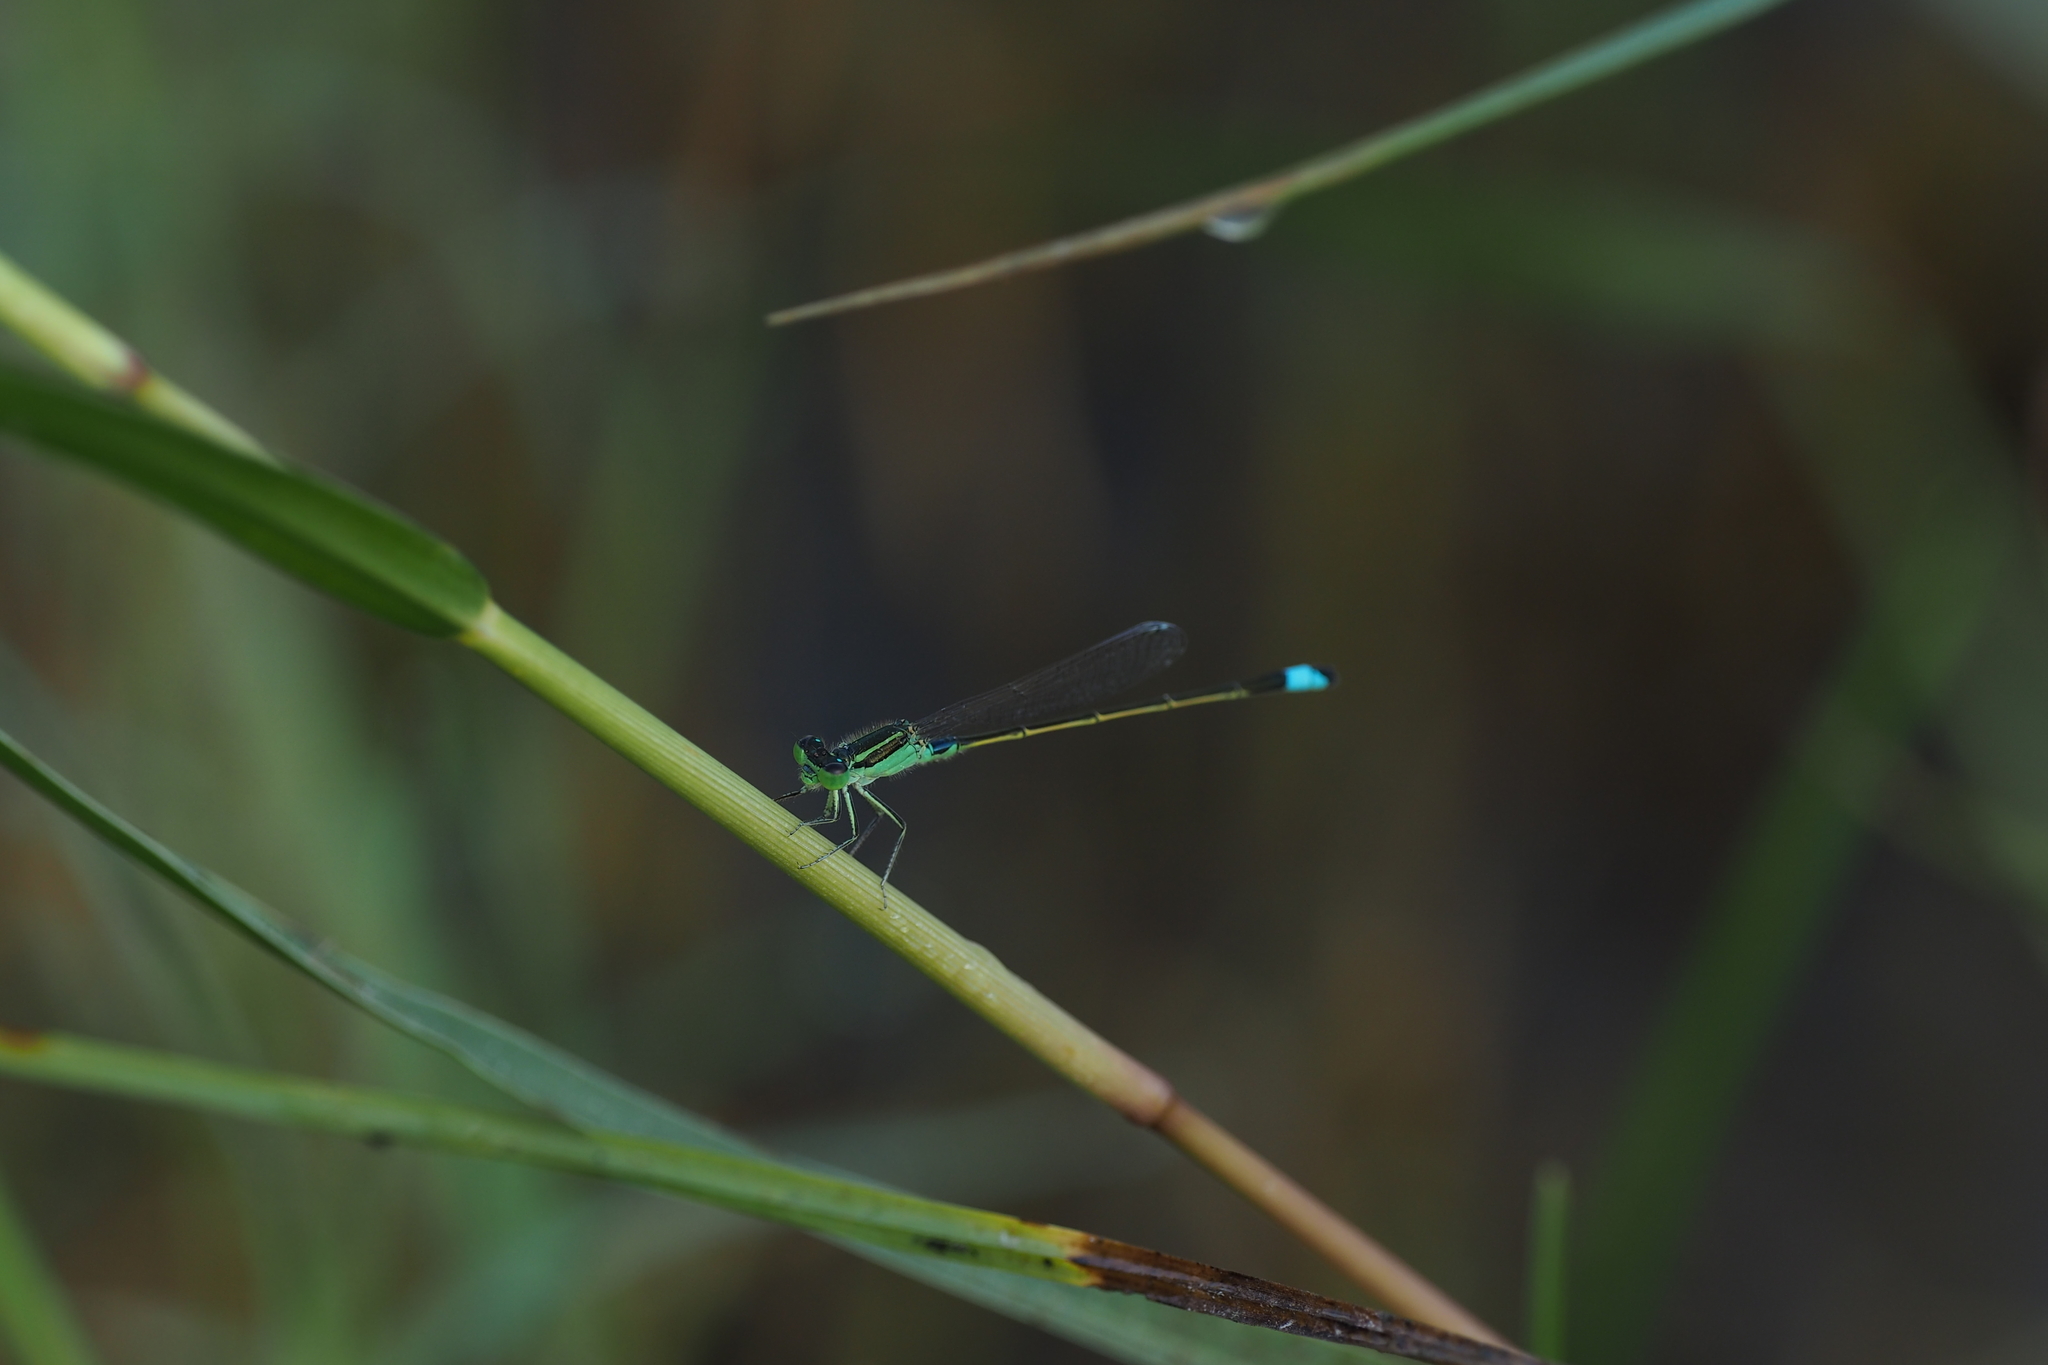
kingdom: Animalia
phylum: Arthropoda
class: Insecta
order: Odonata
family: Coenagrionidae
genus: Ischnura
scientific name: Ischnura senegalensis
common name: Tropical bluetail
